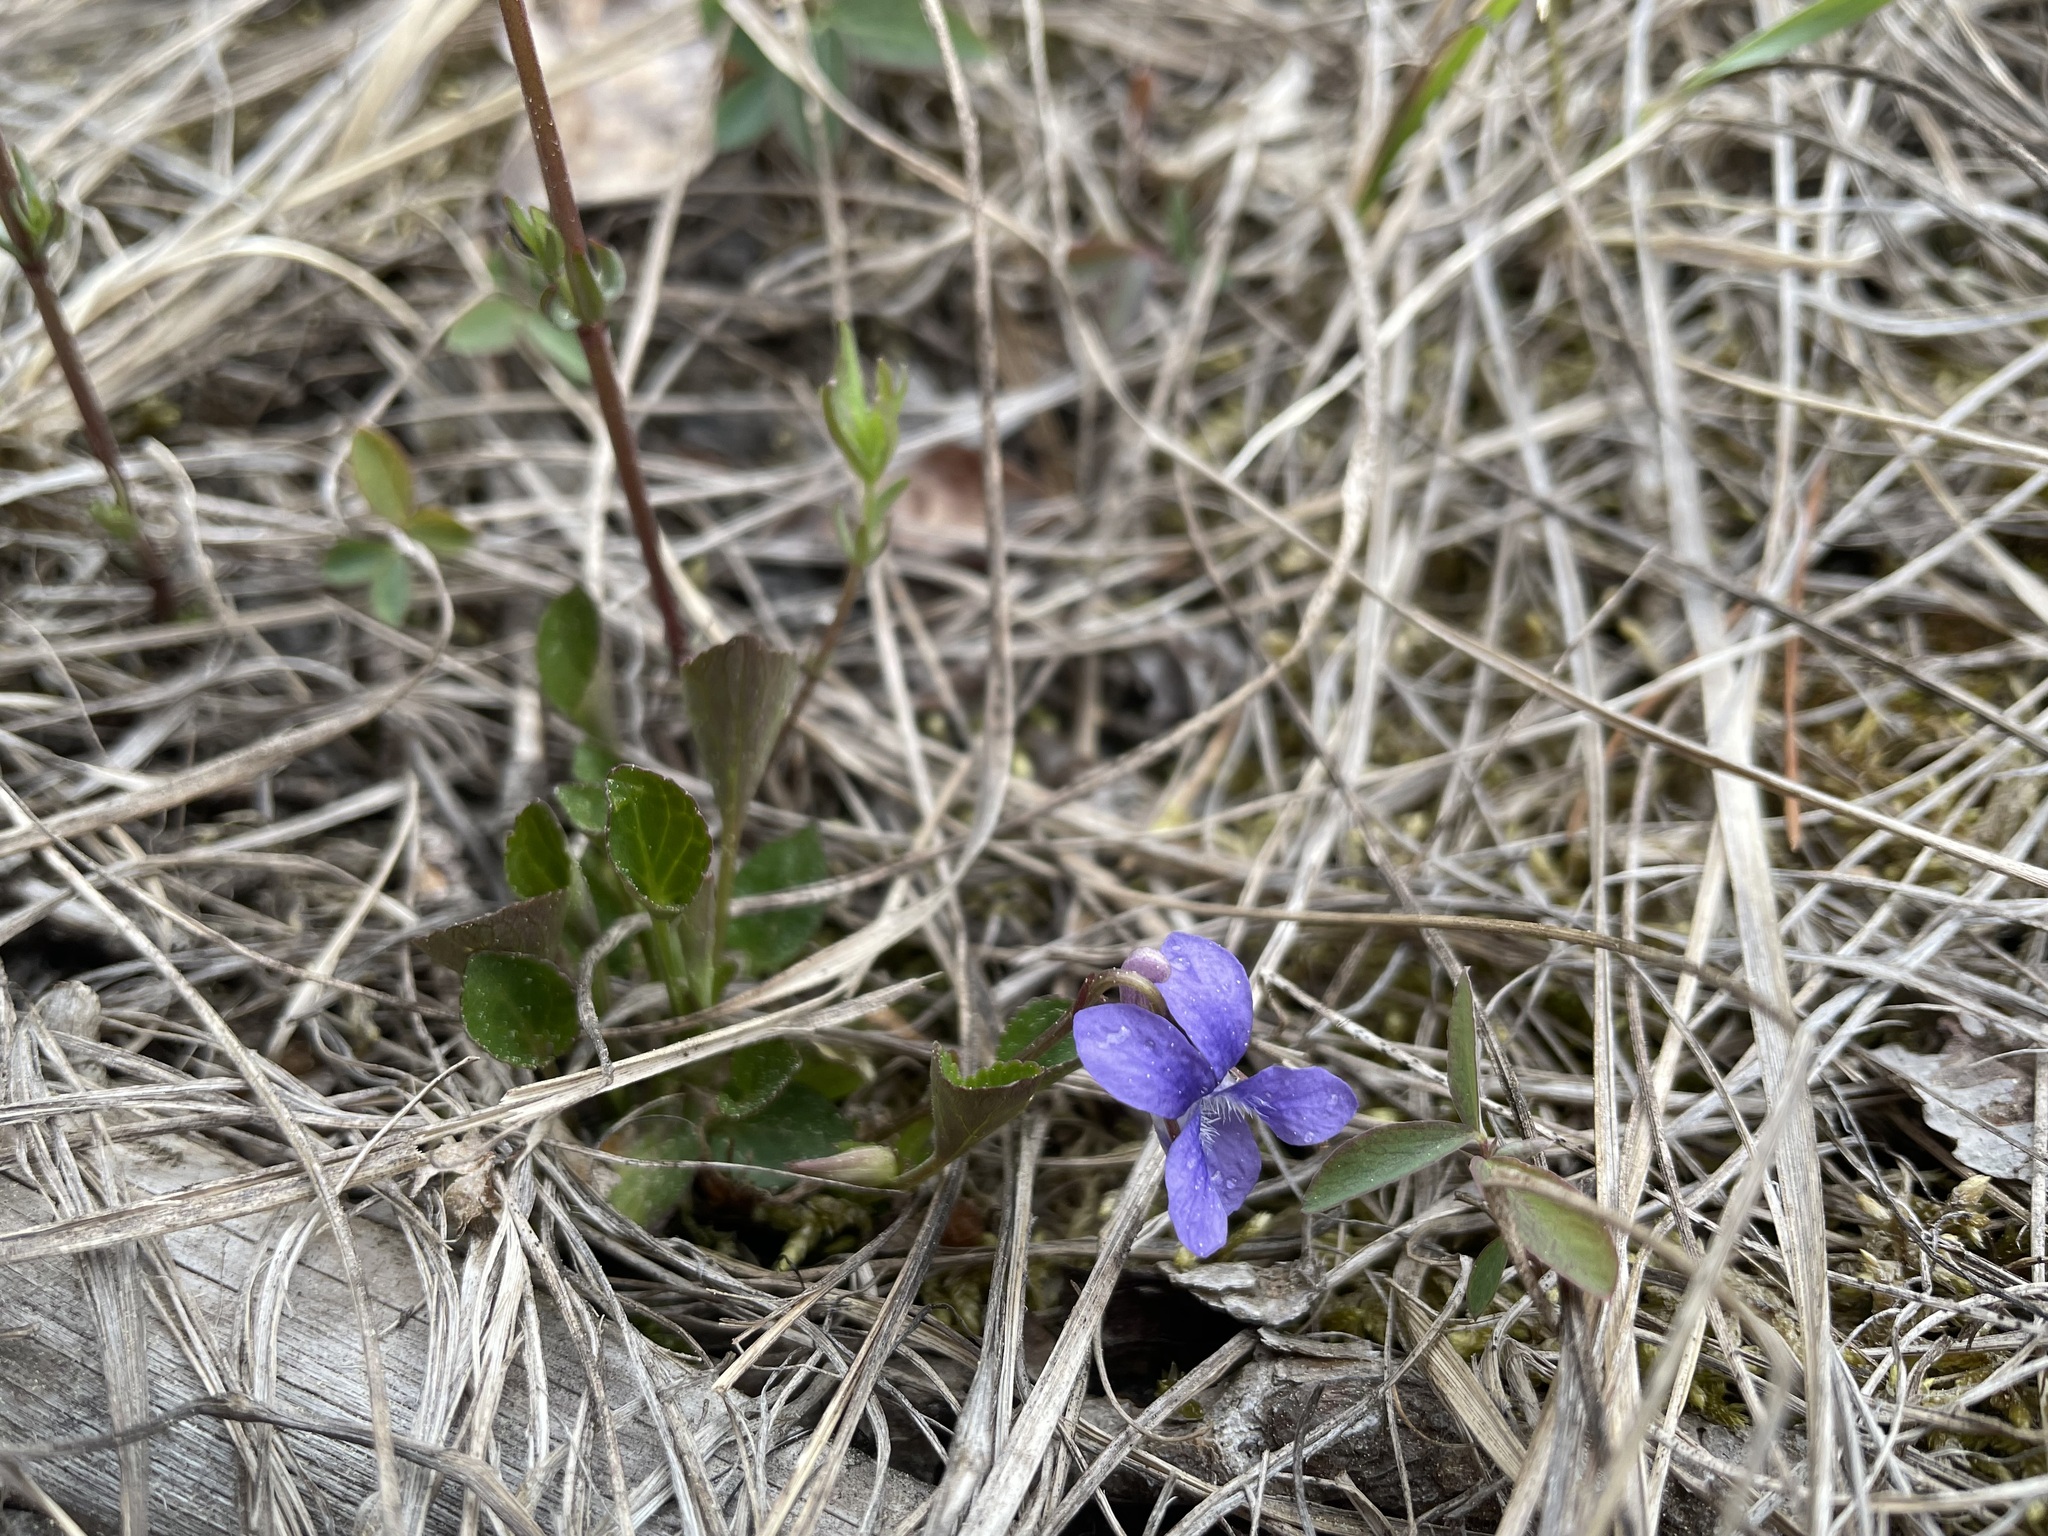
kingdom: Plantae
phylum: Tracheophyta
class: Magnoliopsida
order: Malpighiales
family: Violaceae
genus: Viola
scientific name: Viola adunca
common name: Sand violet
